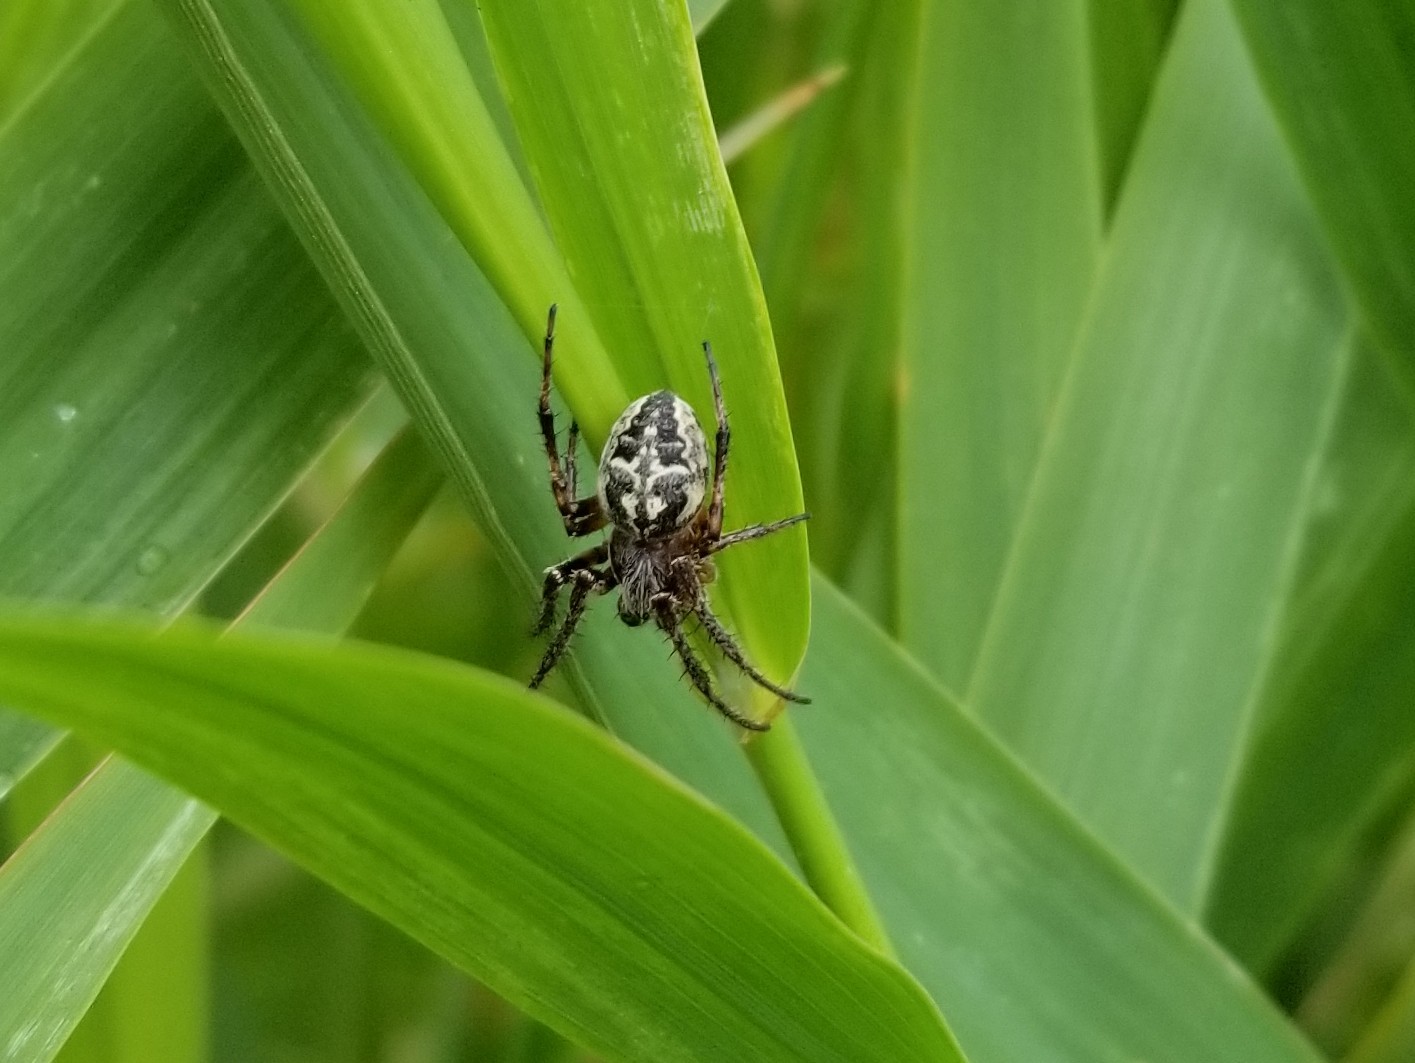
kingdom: Animalia
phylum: Arthropoda
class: Arachnida
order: Araneae
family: Araneidae
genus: Larinioides
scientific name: Larinioides patagiatus
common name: Ornamental orbweaver
